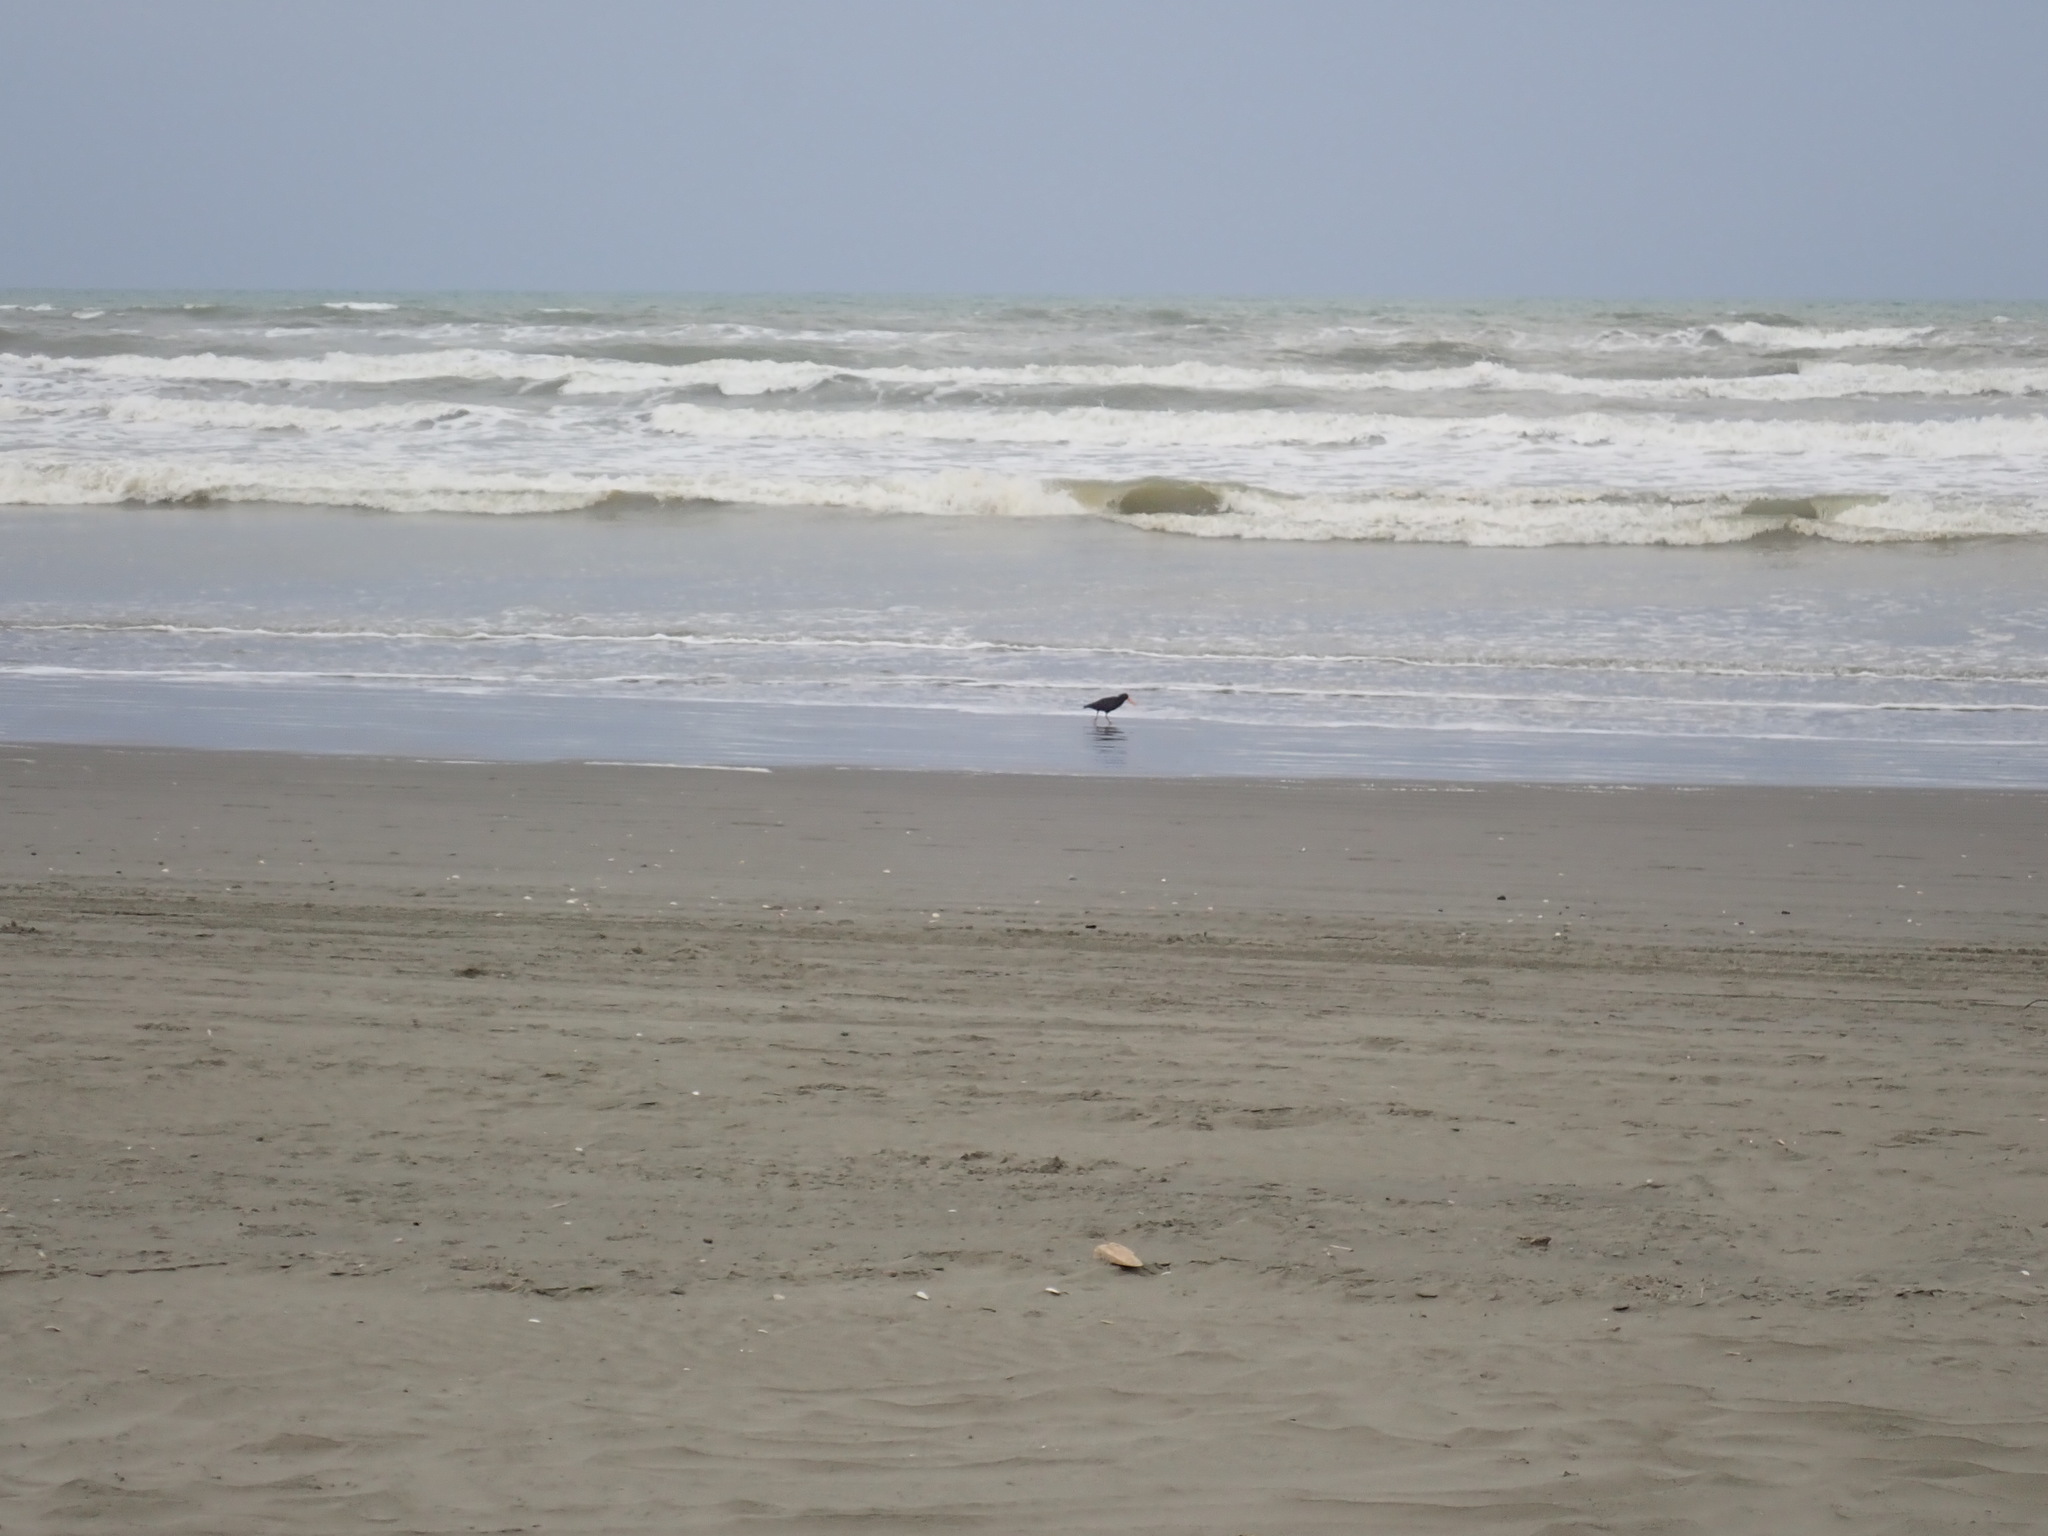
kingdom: Animalia
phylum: Chordata
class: Aves
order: Charadriiformes
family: Haematopodidae
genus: Haematopus
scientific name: Haematopus unicolor
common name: Variable oystercatcher
